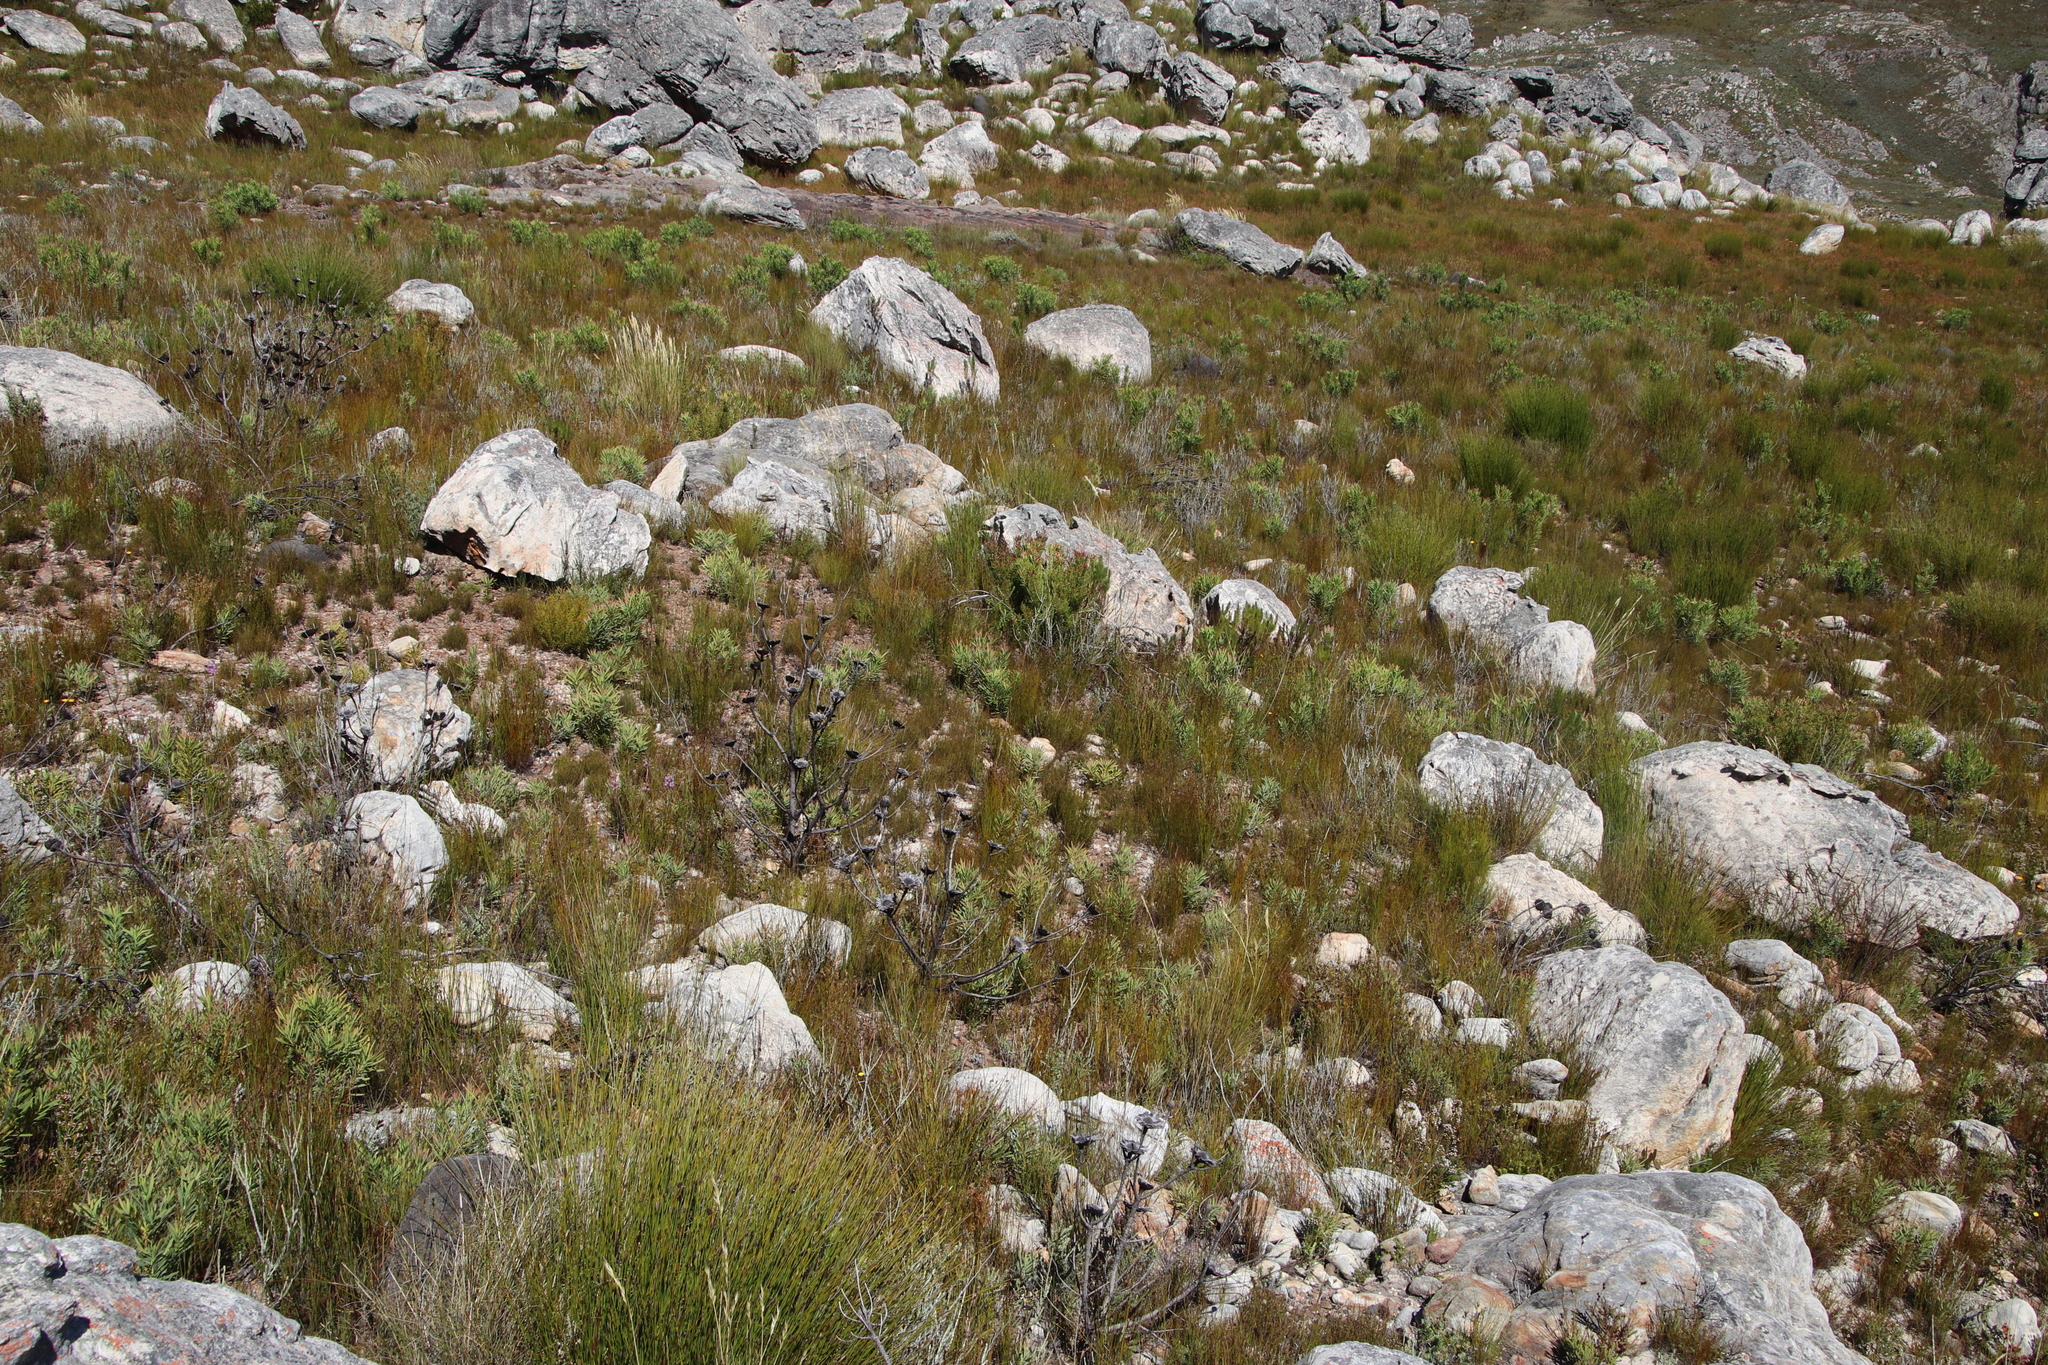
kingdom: Plantae
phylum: Tracheophyta
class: Magnoliopsida
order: Proteales
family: Proteaceae
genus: Protea
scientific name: Protea repens
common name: Sugarbush
